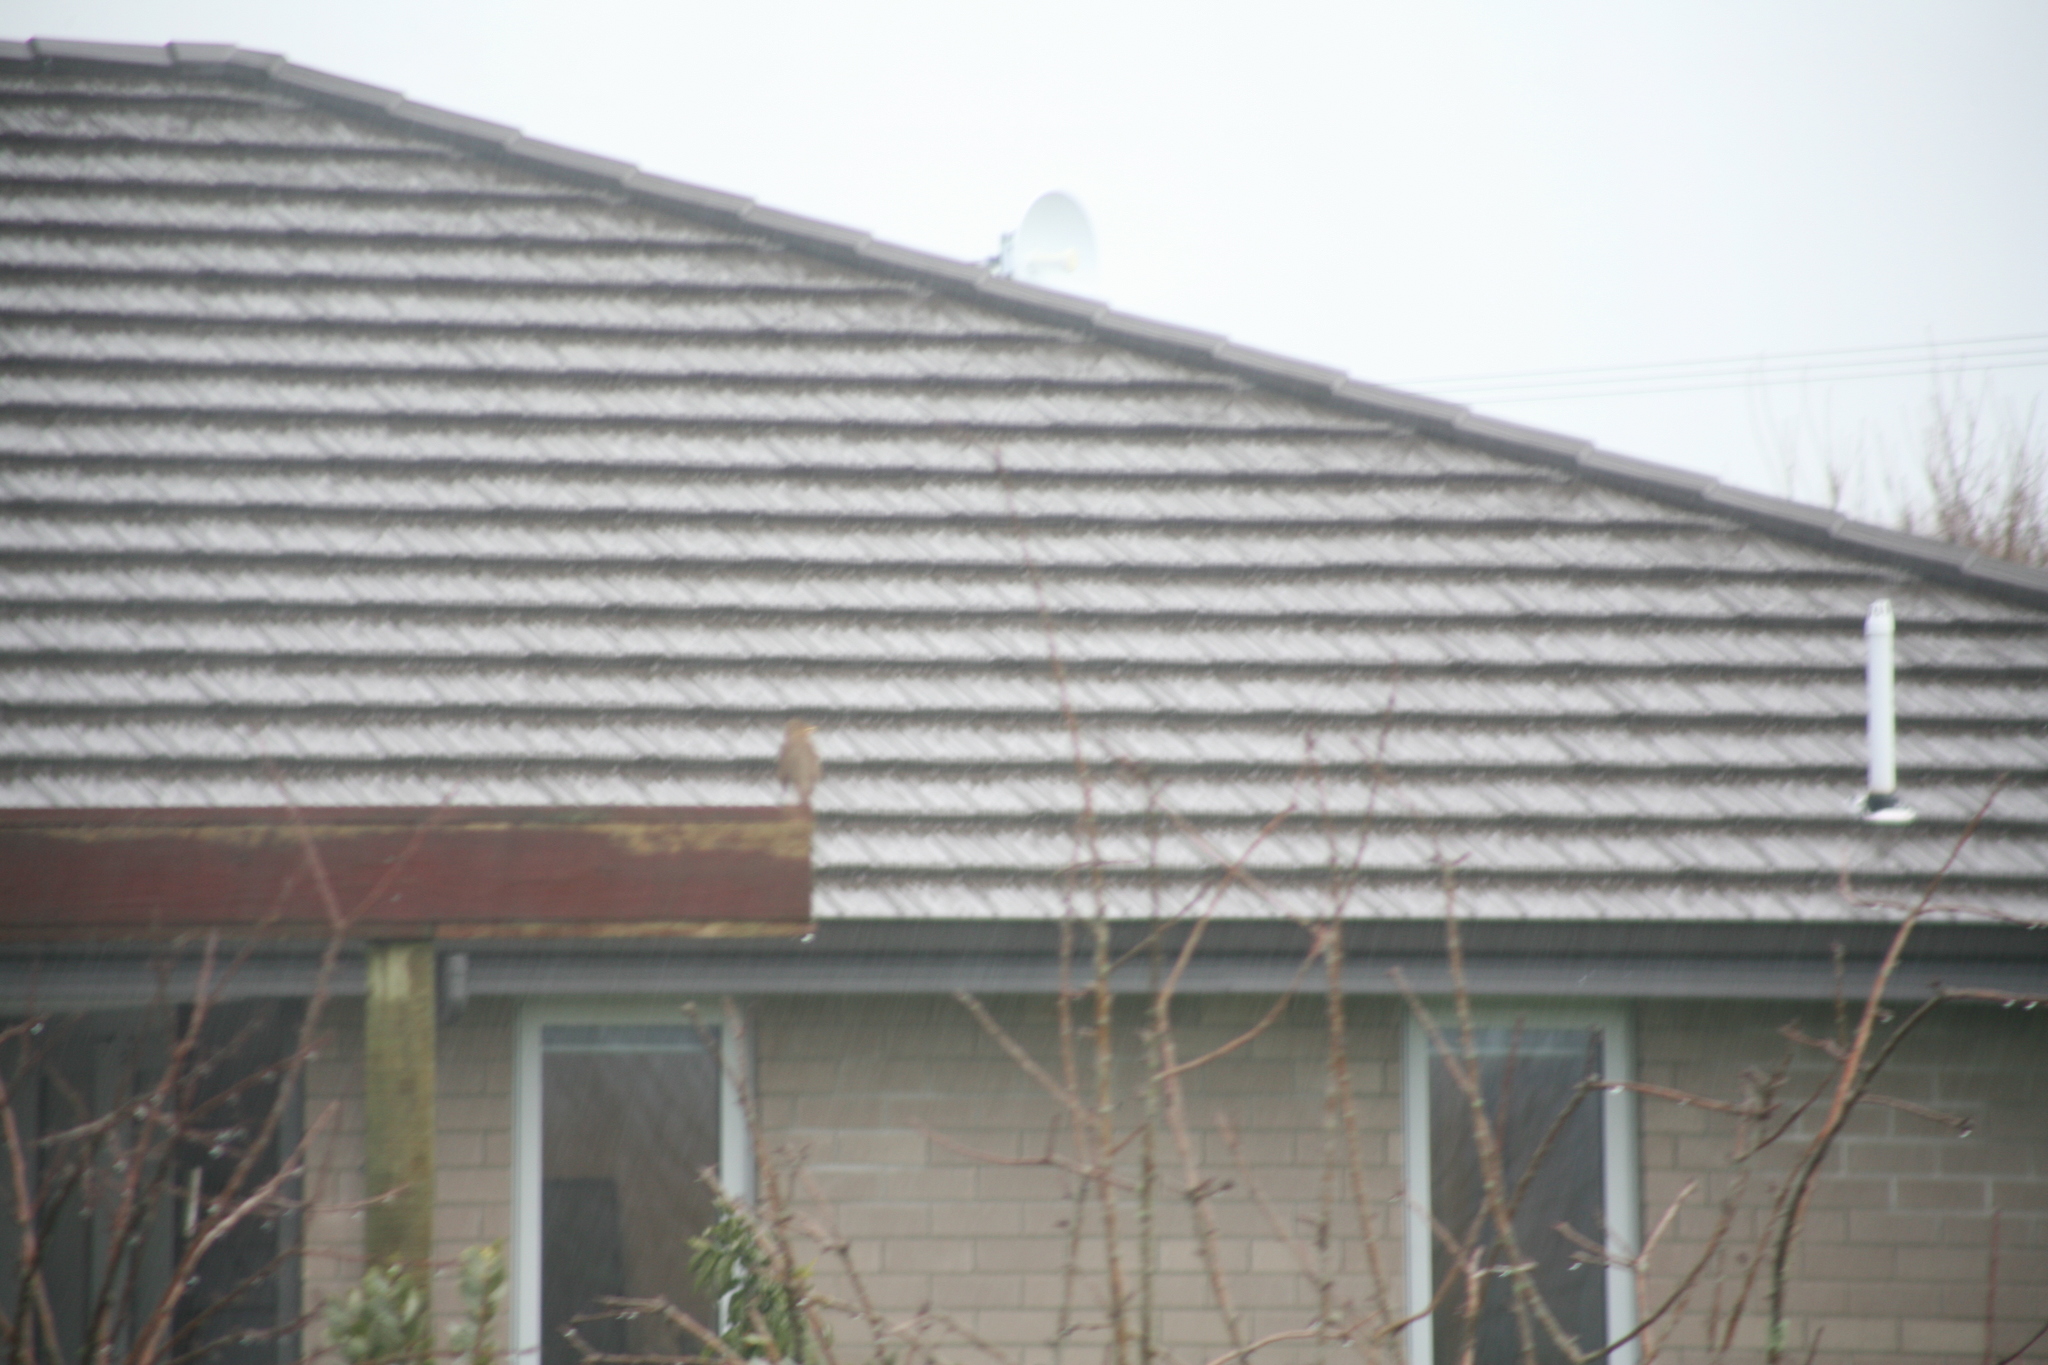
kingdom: Animalia
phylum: Chordata
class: Aves
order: Passeriformes
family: Turdidae
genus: Turdus
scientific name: Turdus philomelos
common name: Song thrush
